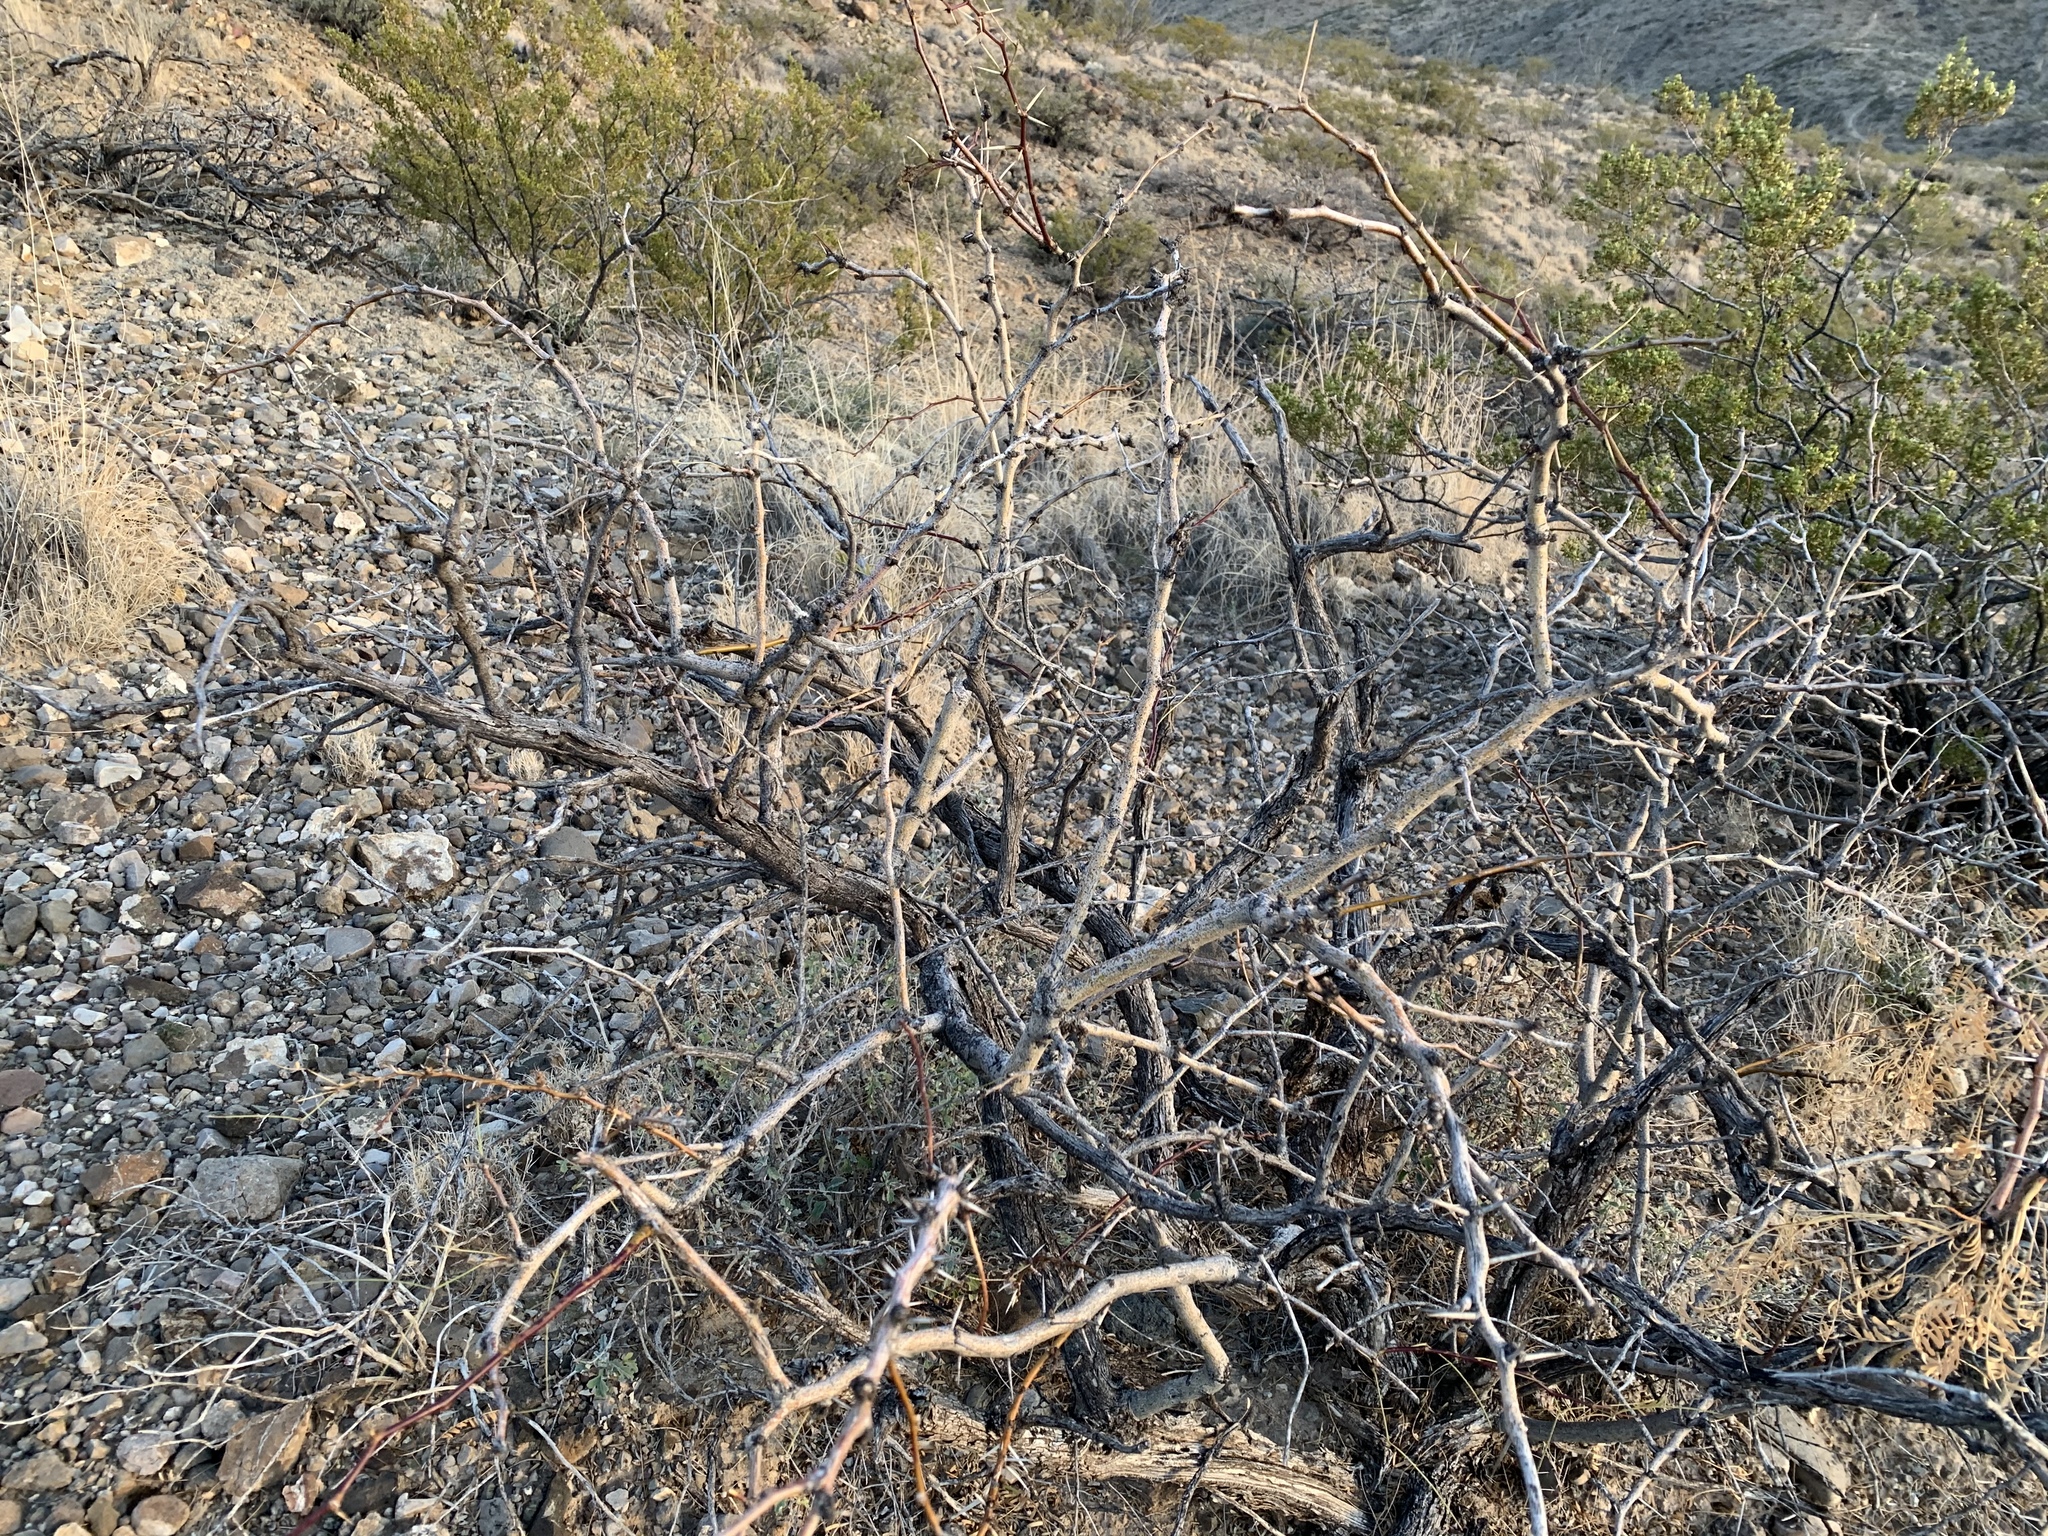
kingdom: Plantae
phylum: Tracheophyta
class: Magnoliopsida
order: Fabales
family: Fabaceae
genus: Prosopis
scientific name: Prosopis glandulosa
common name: Honey mesquite
